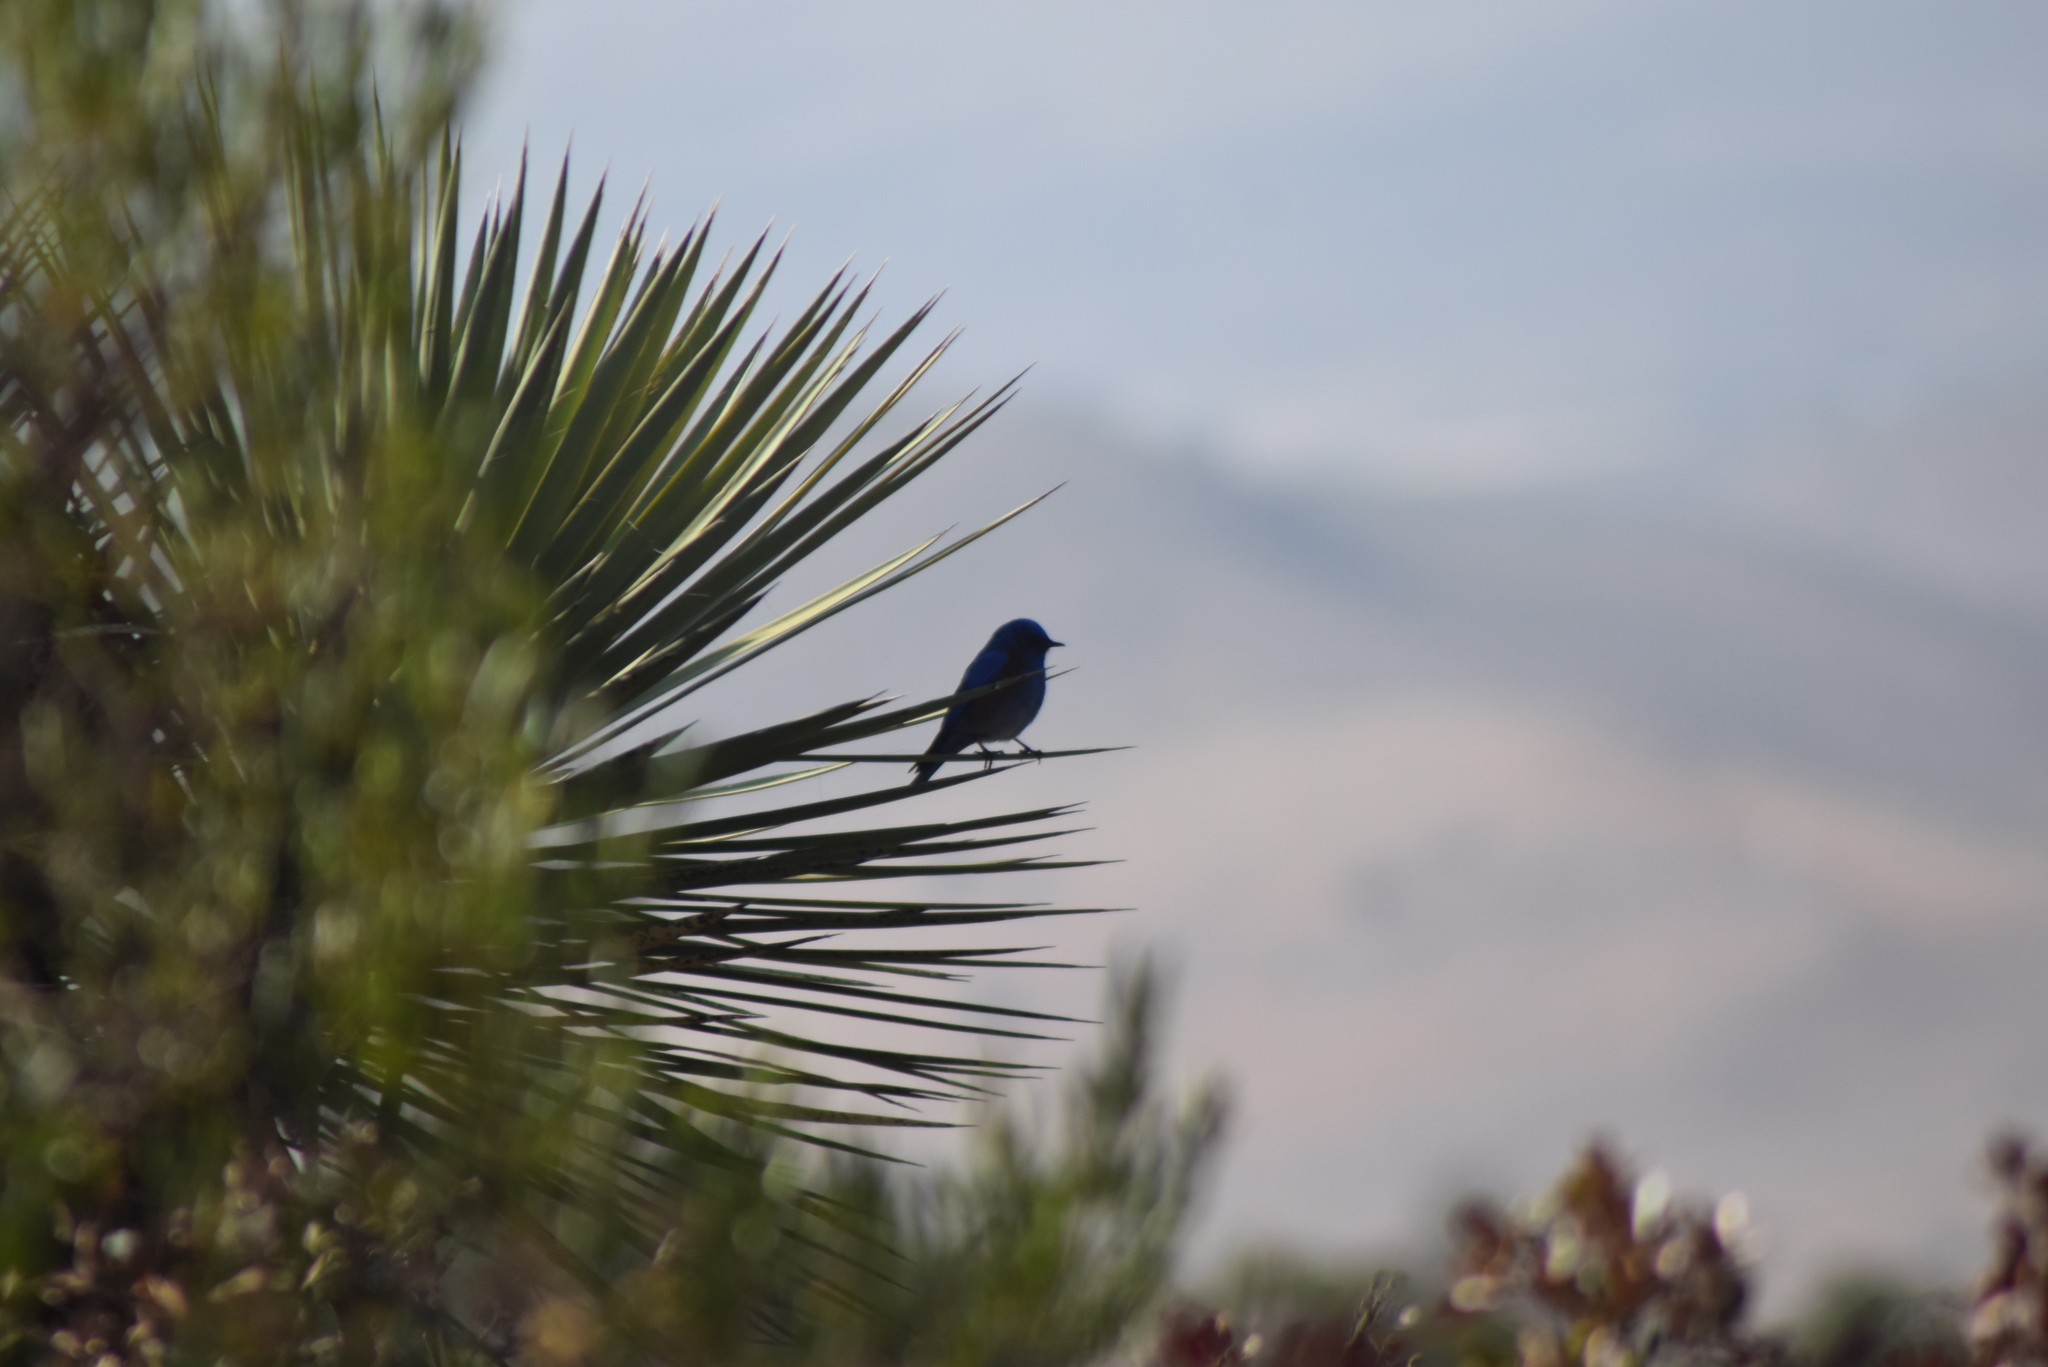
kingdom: Animalia
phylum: Chordata
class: Aves
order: Passeriformes
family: Turdidae
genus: Sialia
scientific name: Sialia mexicana
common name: Western bluebird
